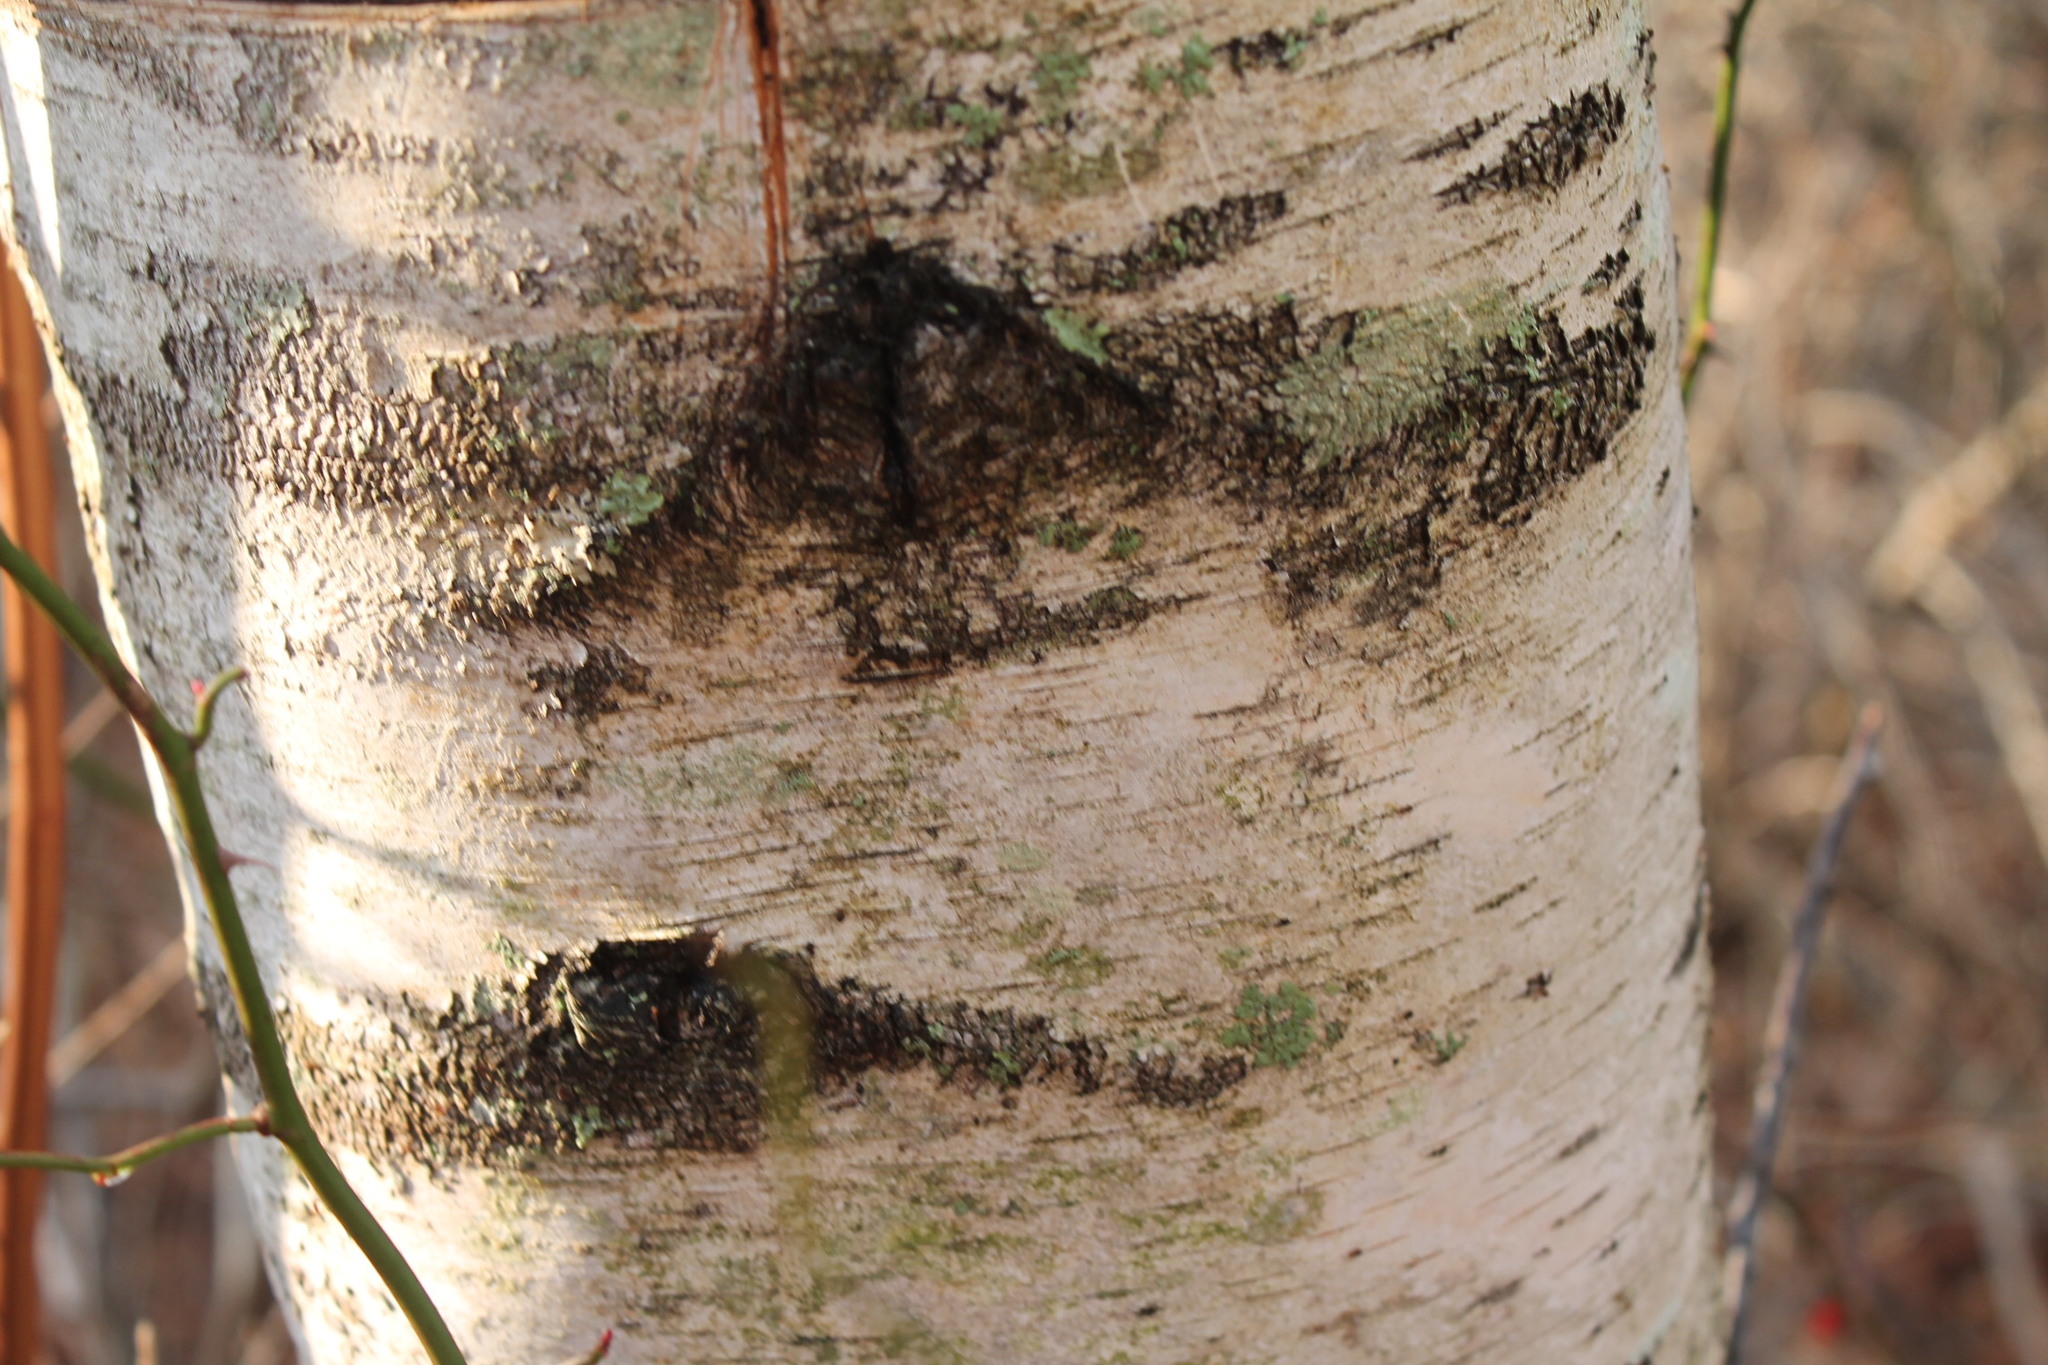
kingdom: Plantae
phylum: Tracheophyta
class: Magnoliopsida
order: Fagales
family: Betulaceae
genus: Betula
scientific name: Betula populifolia
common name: Fire birch
